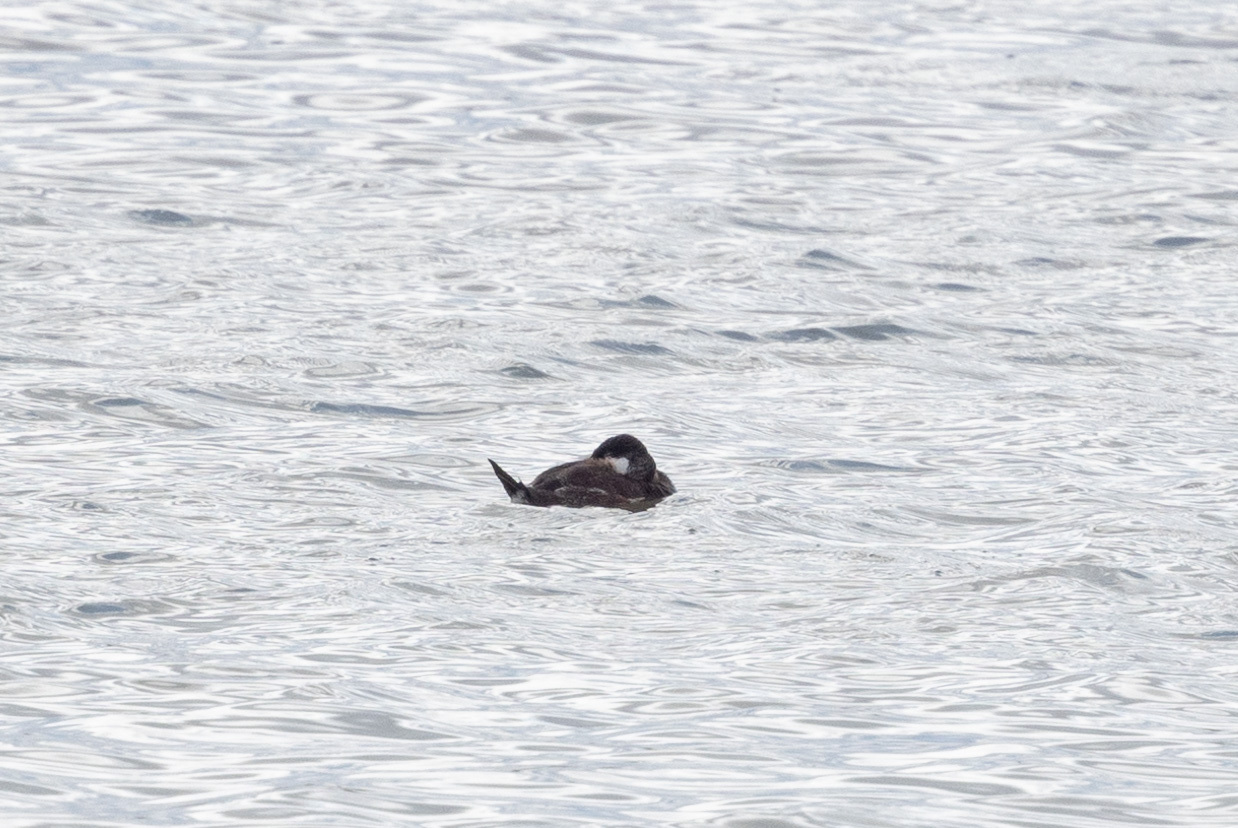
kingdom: Animalia
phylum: Chordata
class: Aves
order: Anseriformes
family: Anatidae
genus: Oxyura
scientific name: Oxyura jamaicensis
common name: Ruddy duck
